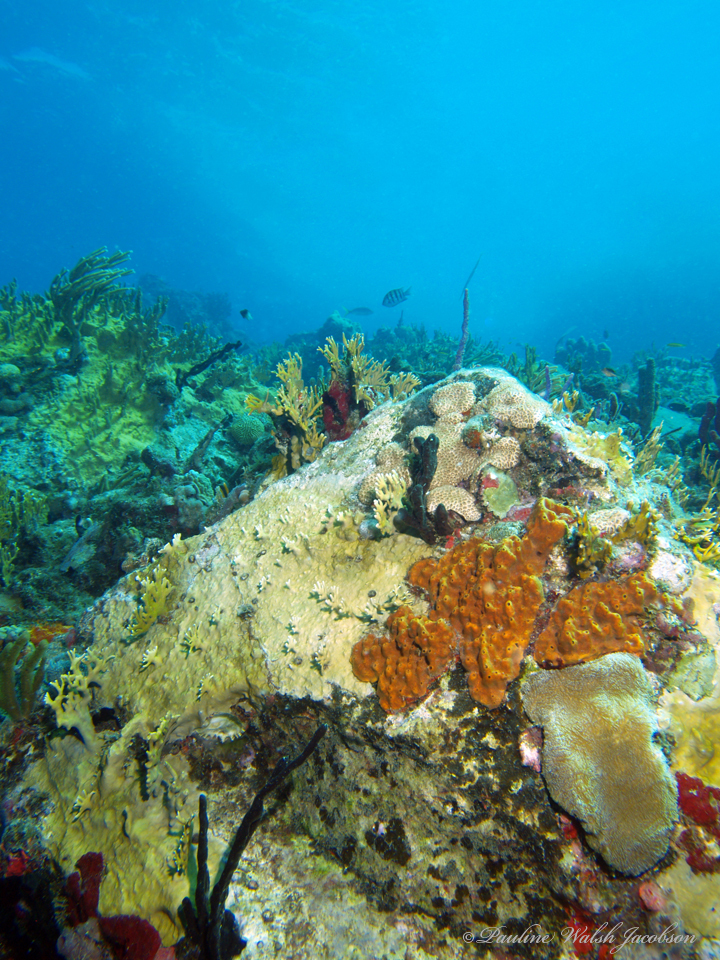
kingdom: Animalia
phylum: Cnidaria
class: Hydrozoa
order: Anthoathecata
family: Milleporidae
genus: Millepora
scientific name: Millepora alcicornis
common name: Branching fire coral
